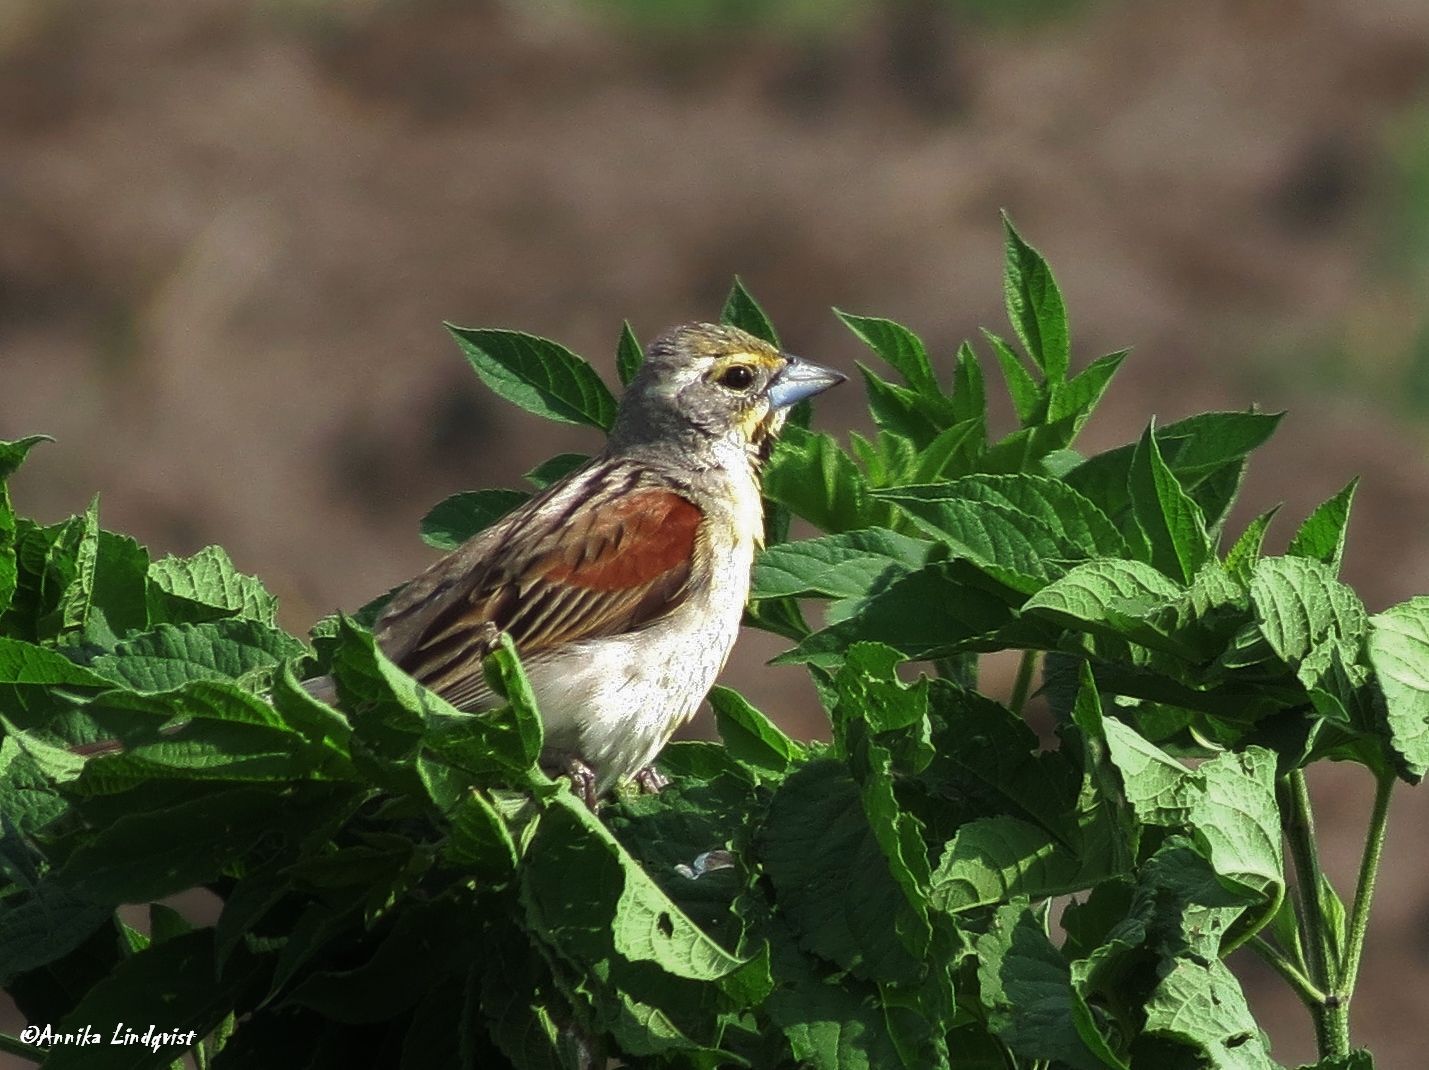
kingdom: Animalia
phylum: Chordata
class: Aves
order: Passeriformes
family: Cardinalidae
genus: Spiza
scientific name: Spiza americana
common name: Dickcissel
